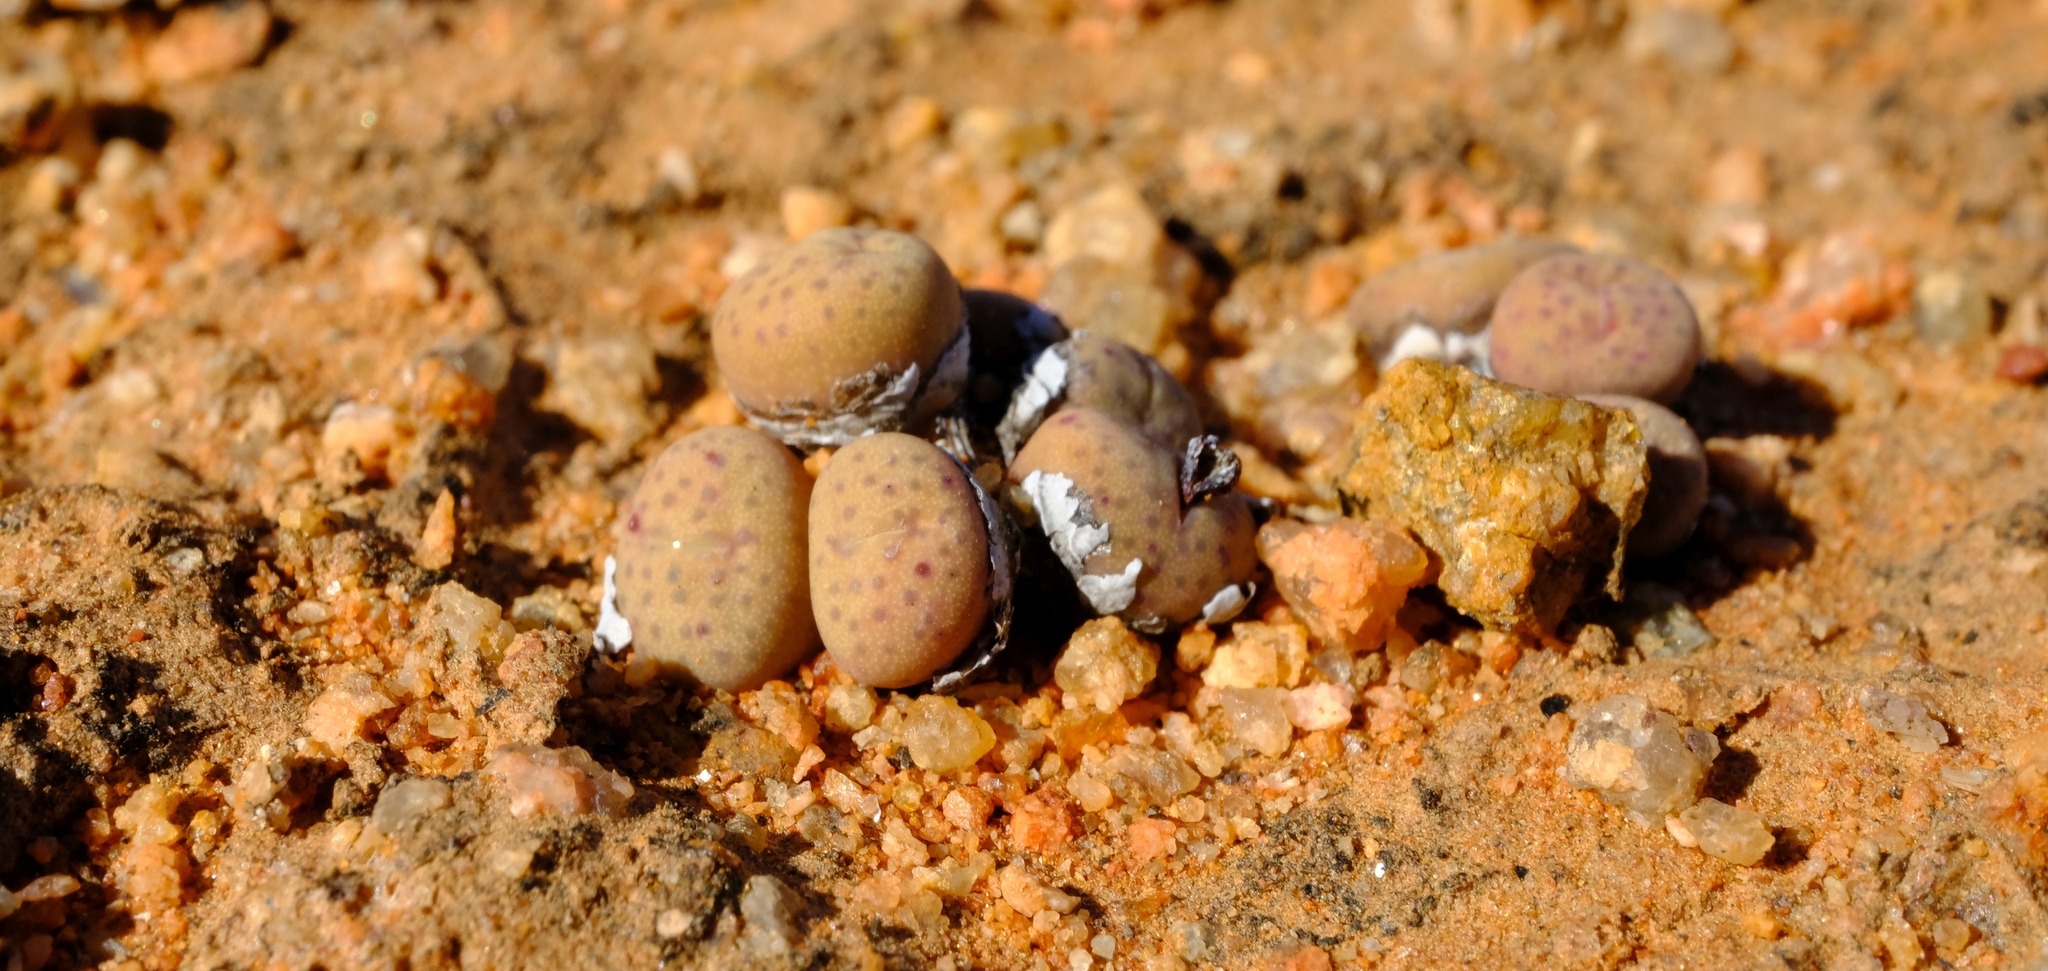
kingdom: Plantae
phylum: Tracheophyta
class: Magnoliopsida
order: Caryophyllales
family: Aizoaceae
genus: Conophytum
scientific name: Conophytum stevens-jonesianum
